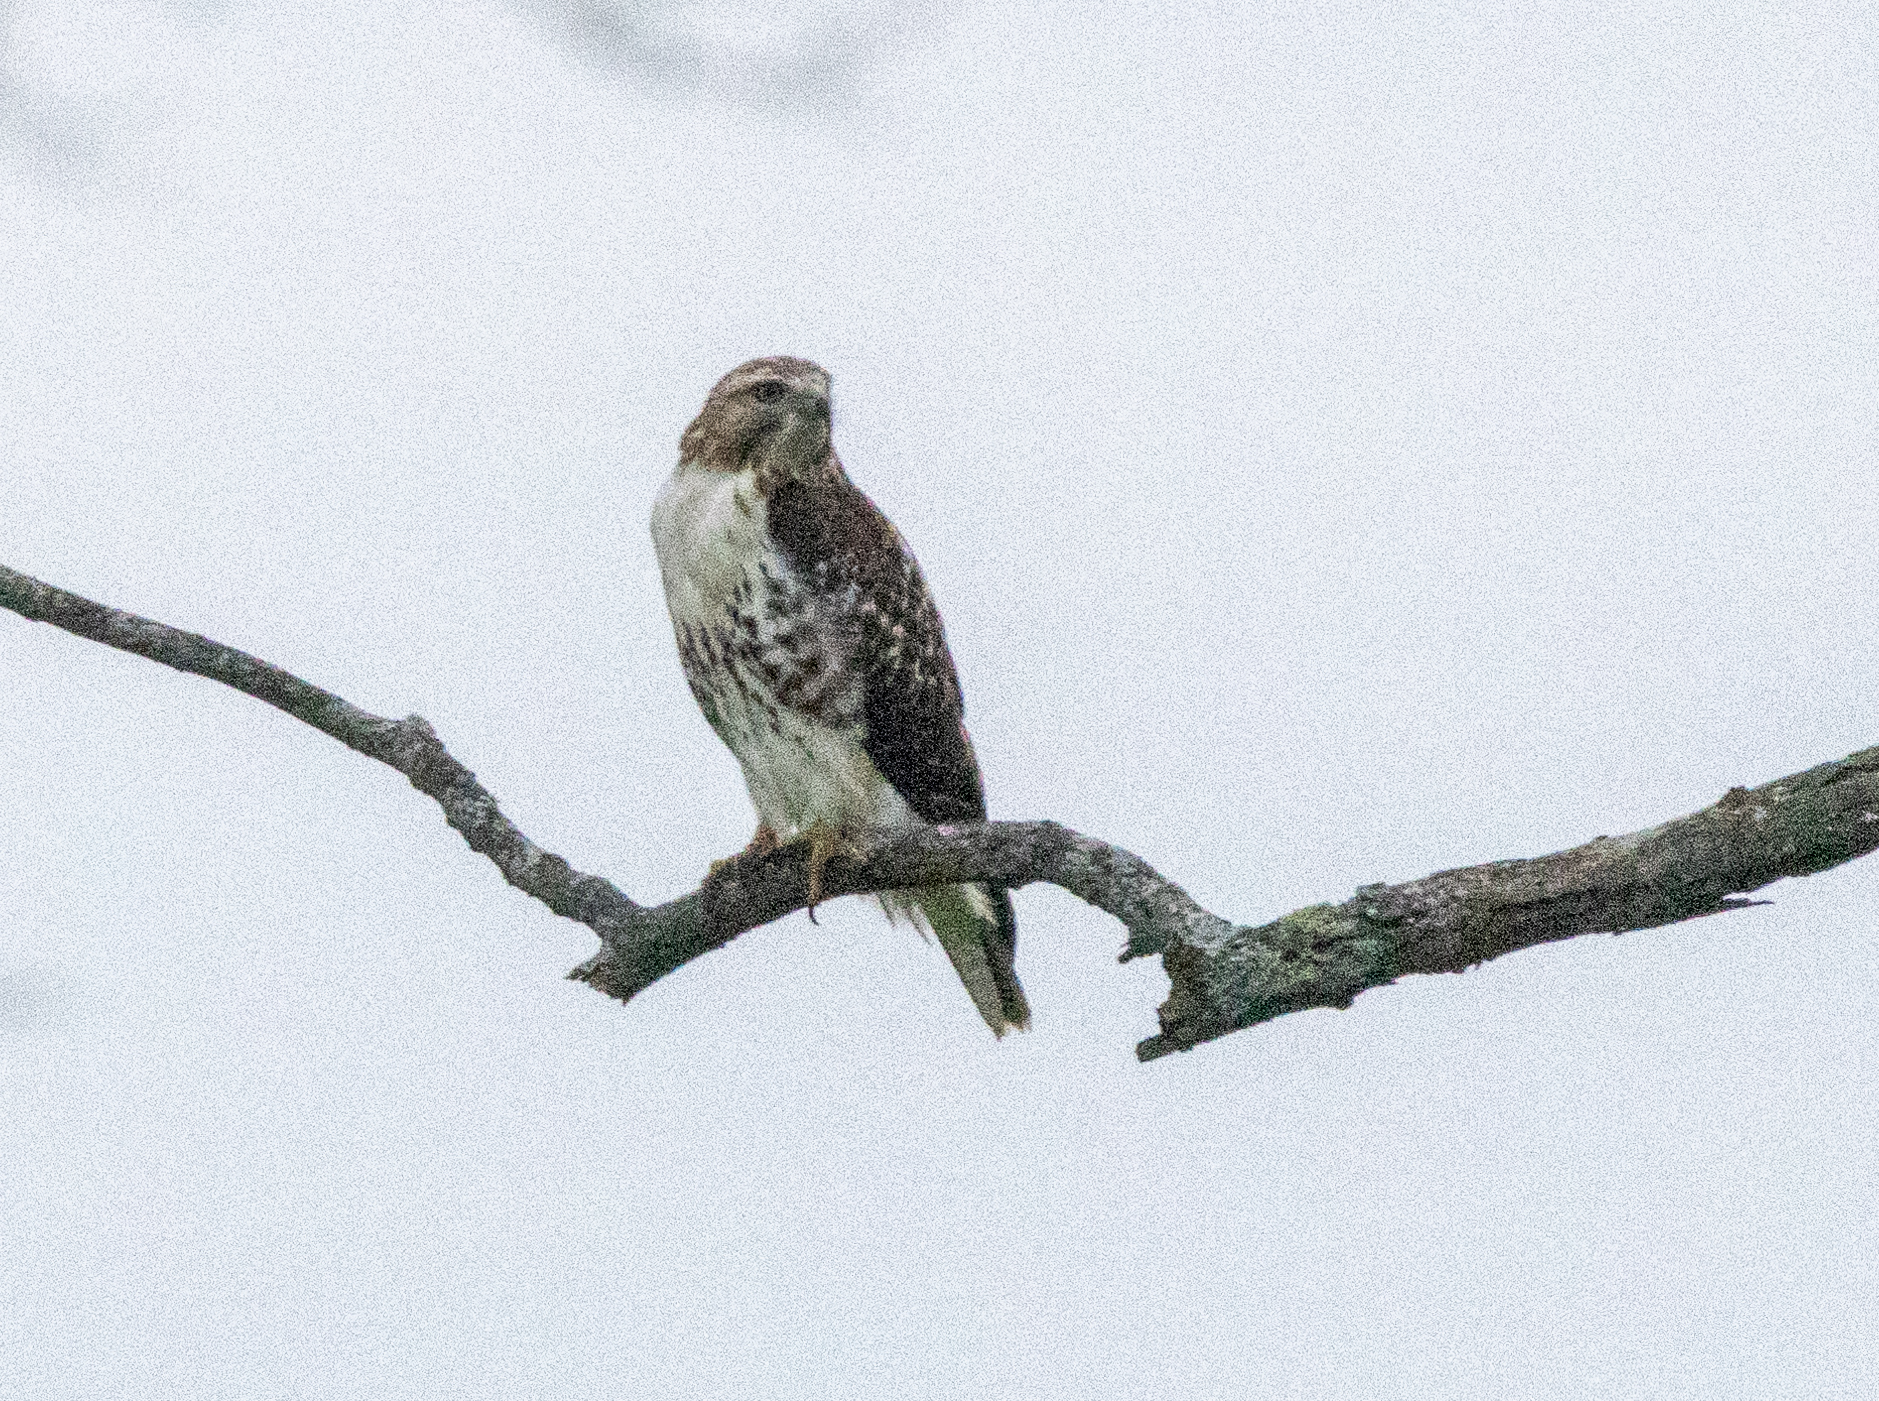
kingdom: Animalia
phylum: Chordata
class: Aves
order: Accipitriformes
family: Accipitridae
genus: Buteo
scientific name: Buteo jamaicensis
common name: Red-tailed hawk
